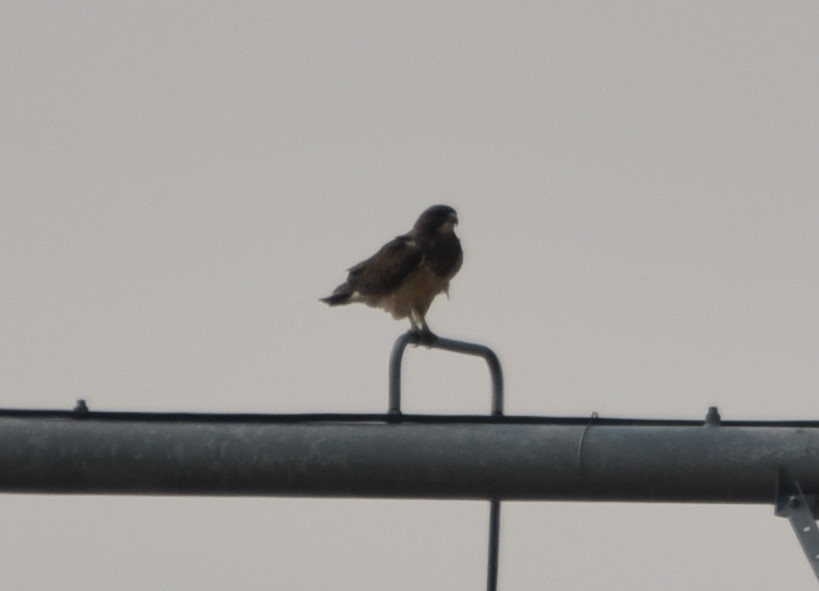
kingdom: Animalia
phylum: Chordata
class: Aves
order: Accipitriformes
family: Accipitridae
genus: Buteo
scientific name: Buteo swainsoni
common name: Swainson's hawk
